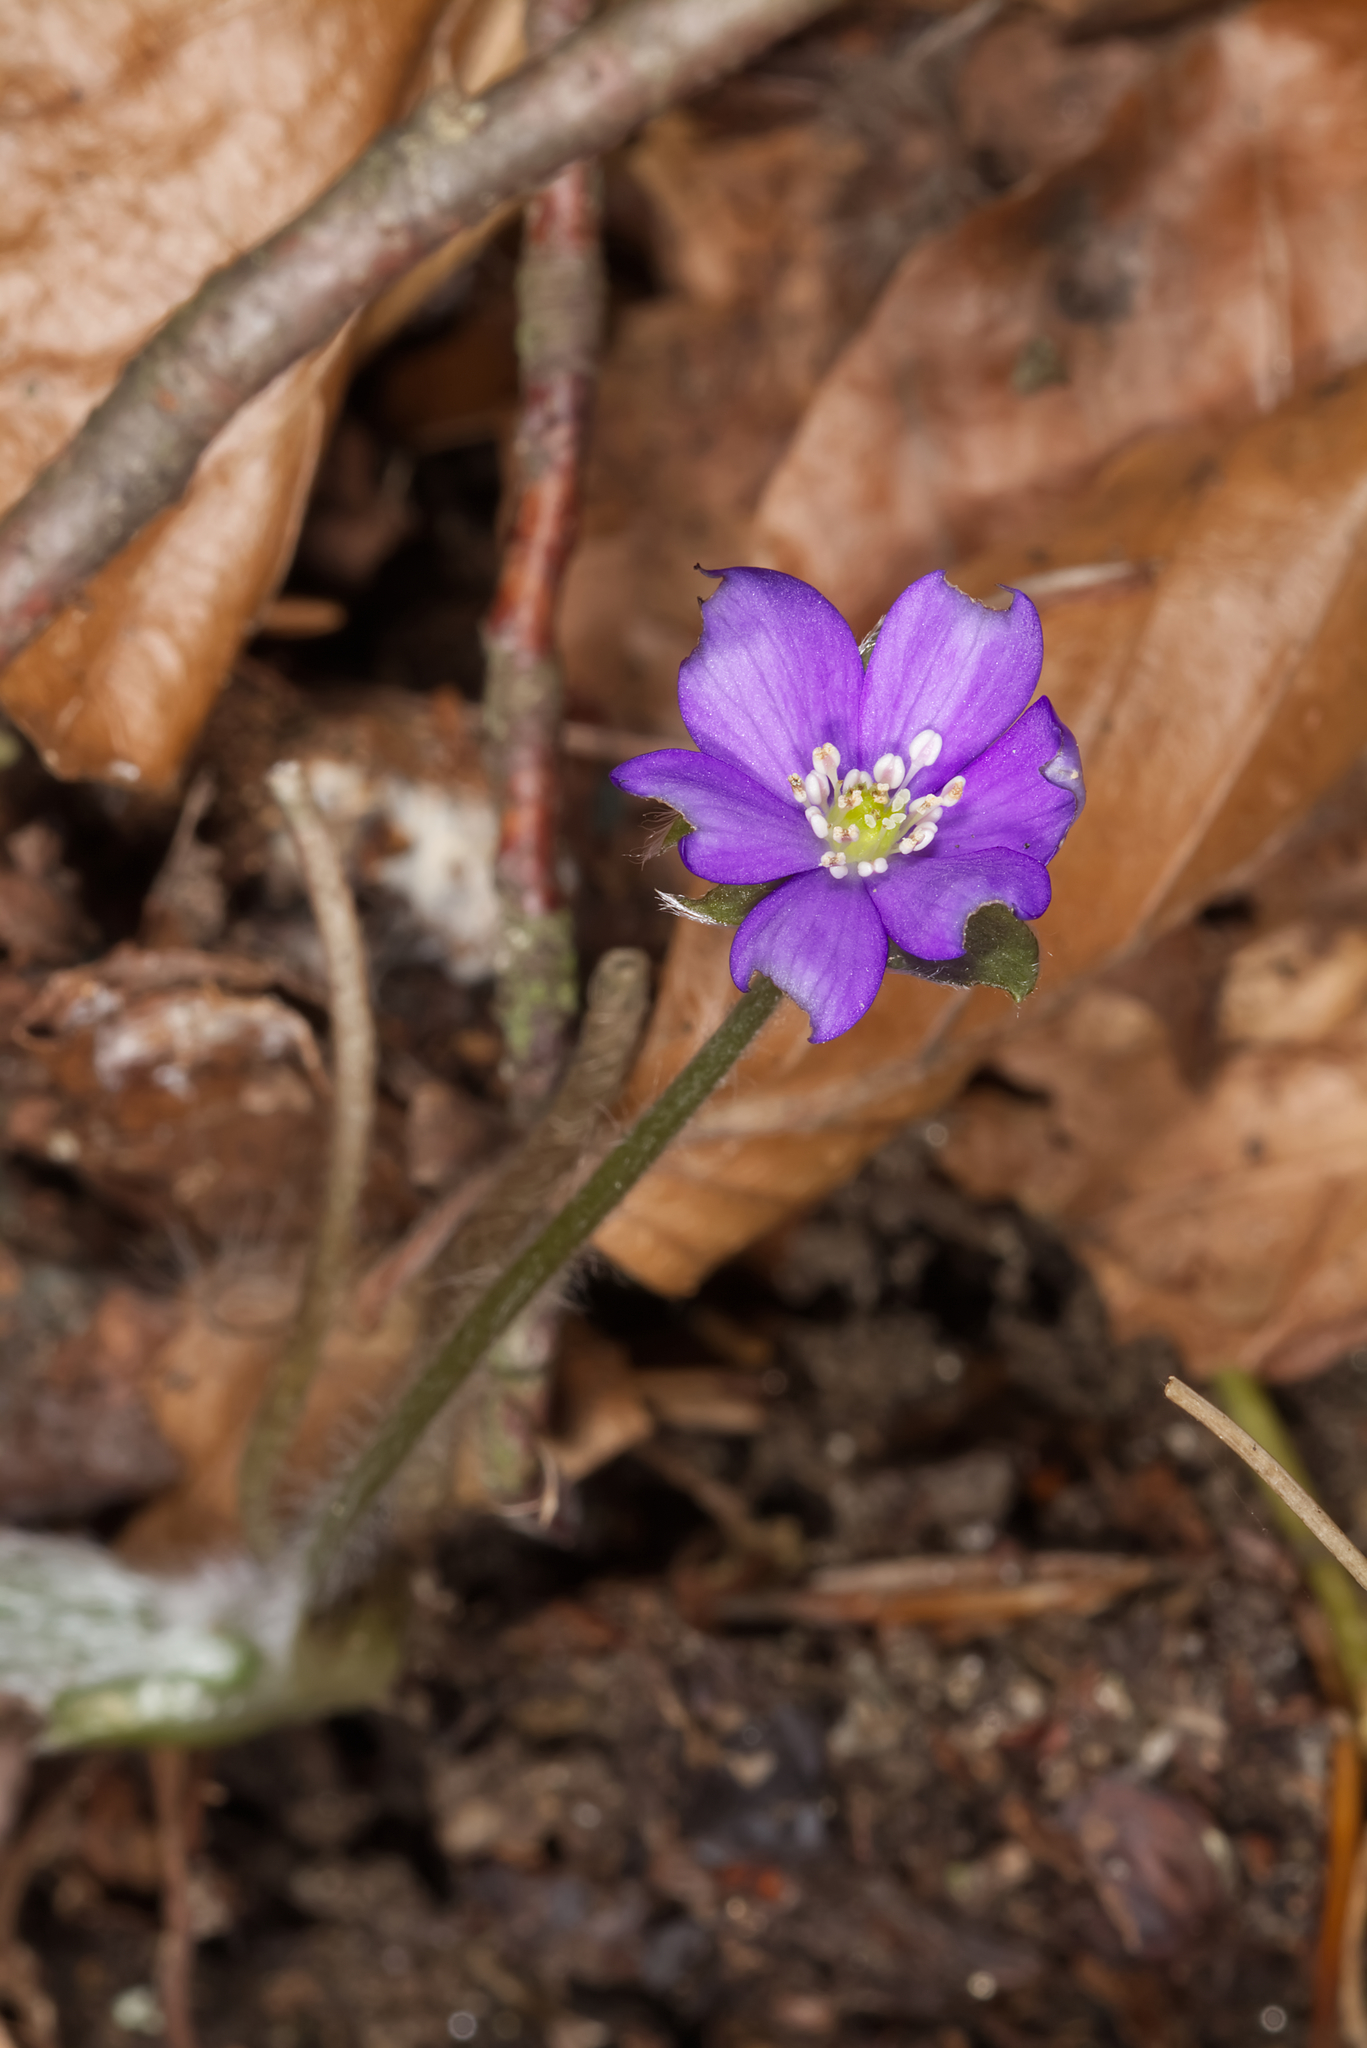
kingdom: Plantae
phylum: Tracheophyta
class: Magnoliopsida
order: Ranunculales
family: Ranunculaceae
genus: Hepatica
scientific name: Hepatica nobilis
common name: Liverleaf
